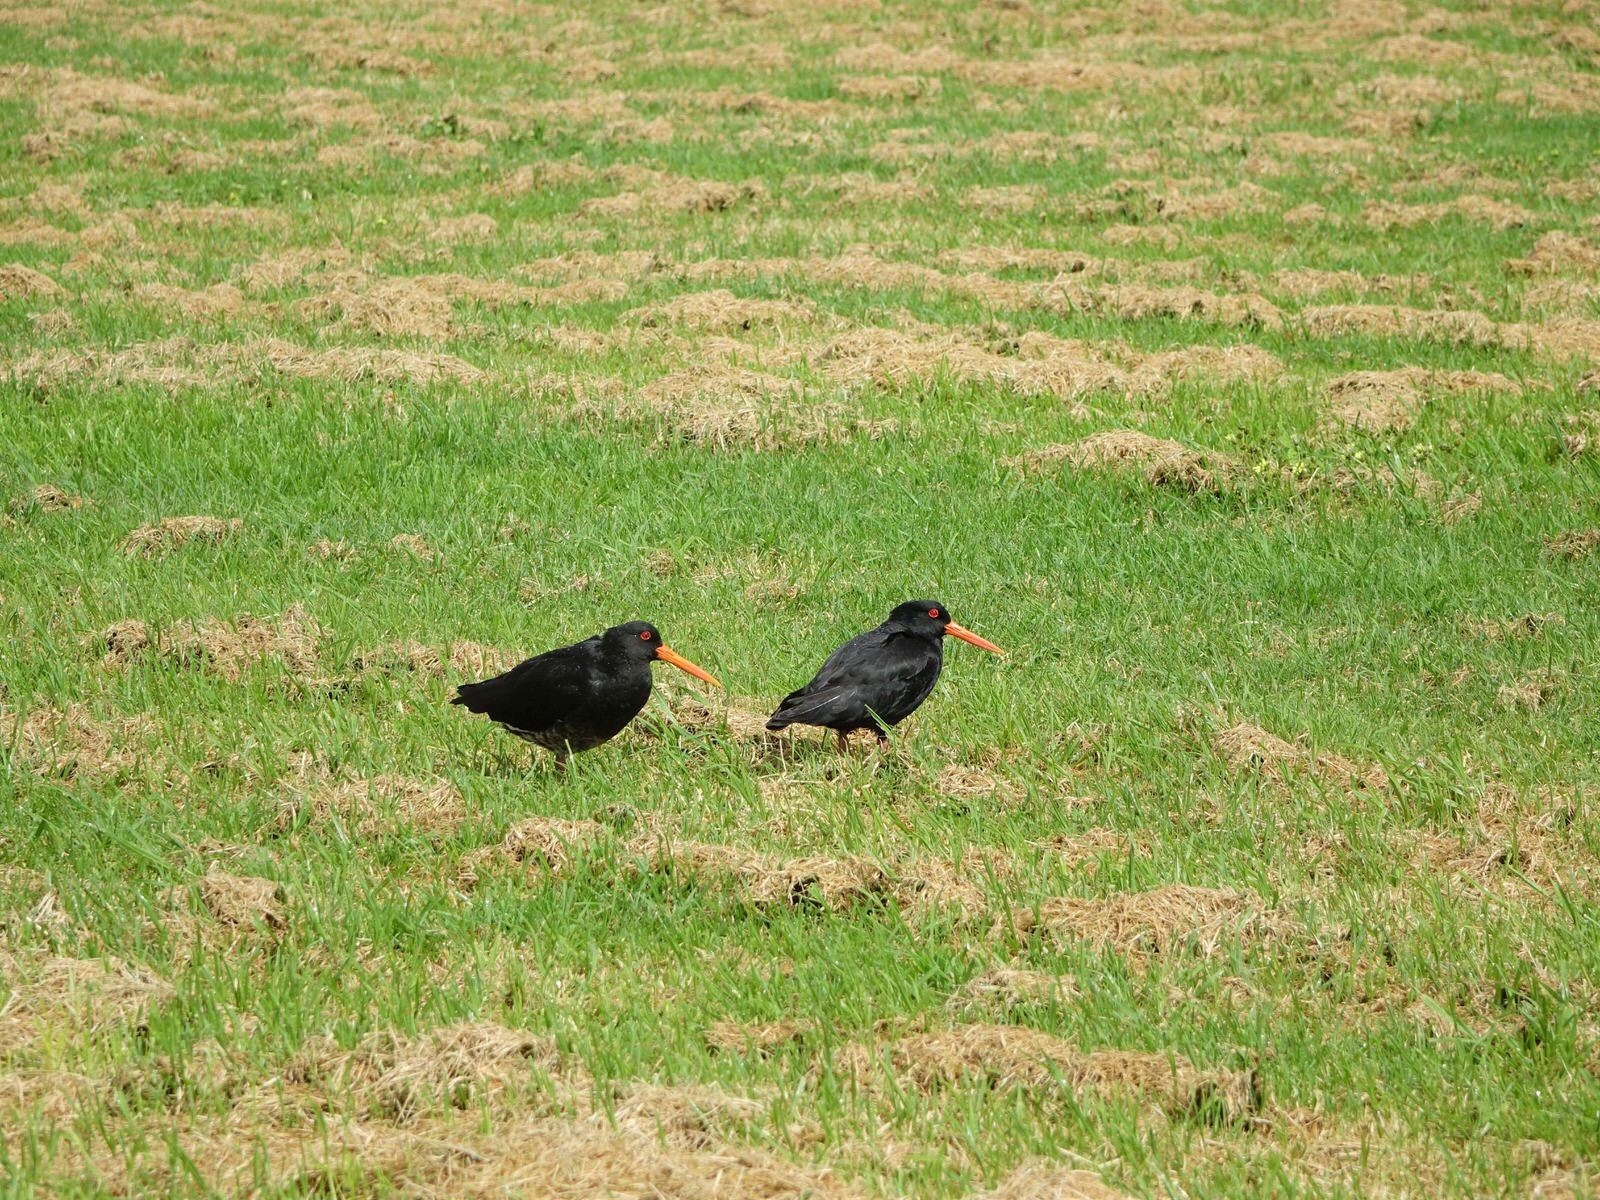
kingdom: Animalia
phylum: Chordata
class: Aves
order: Charadriiformes
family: Haematopodidae
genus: Haematopus
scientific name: Haematopus unicolor
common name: Variable oystercatcher
